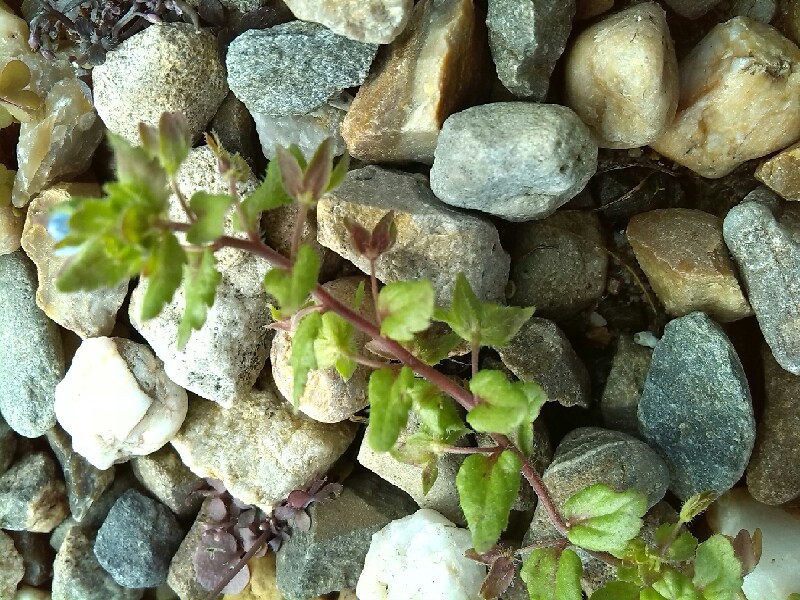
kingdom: Plantae
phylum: Tracheophyta
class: Magnoliopsida
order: Lamiales
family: Plantaginaceae
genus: Veronica
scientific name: Veronica agrestis
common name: Green field-speedwell
